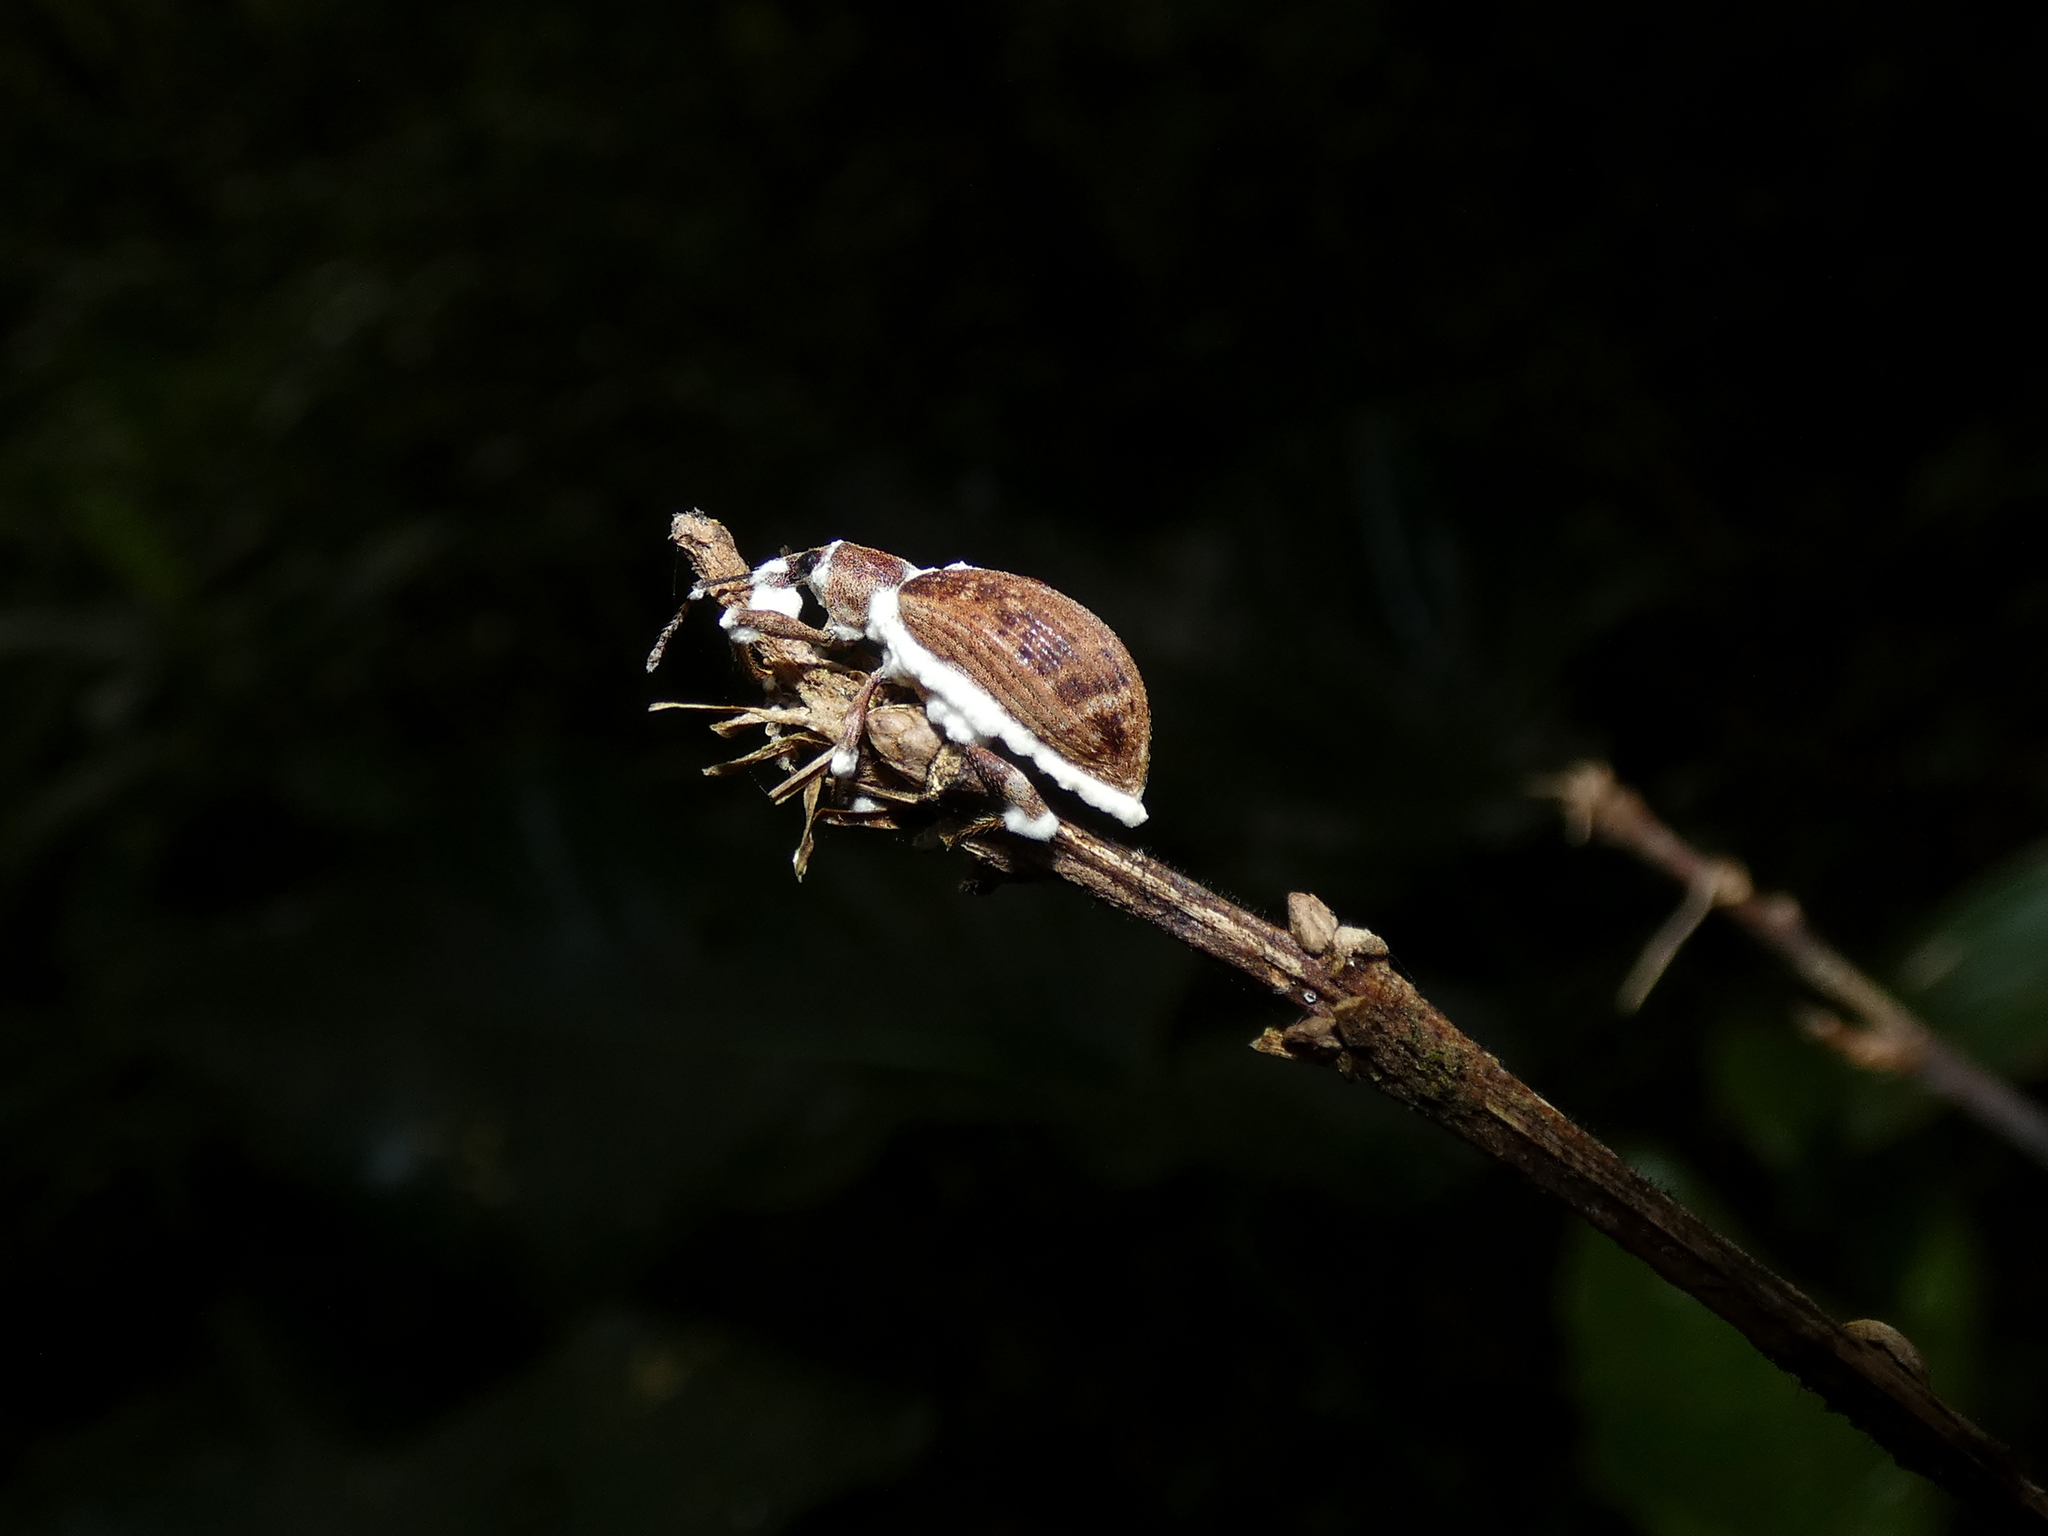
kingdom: Fungi
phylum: Ascomycota
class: Sordariomycetes
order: Hypocreales
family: Cordycipitaceae
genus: Beauveria
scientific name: Beauveria bassiana
